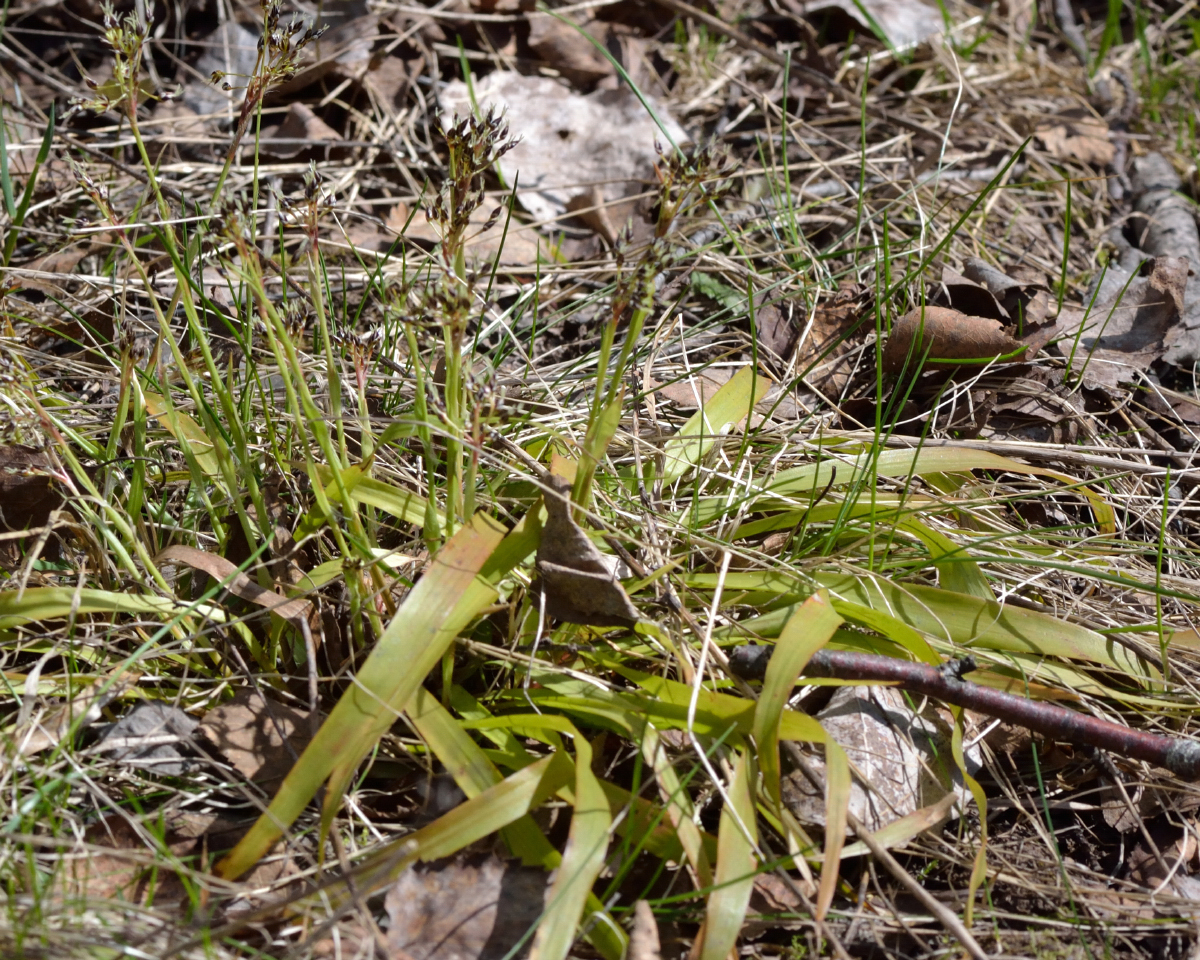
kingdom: Plantae
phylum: Tracheophyta
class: Liliopsida
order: Poales
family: Juncaceae
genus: Luzula
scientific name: Luzula pilosa
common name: Hairy wood-rush
